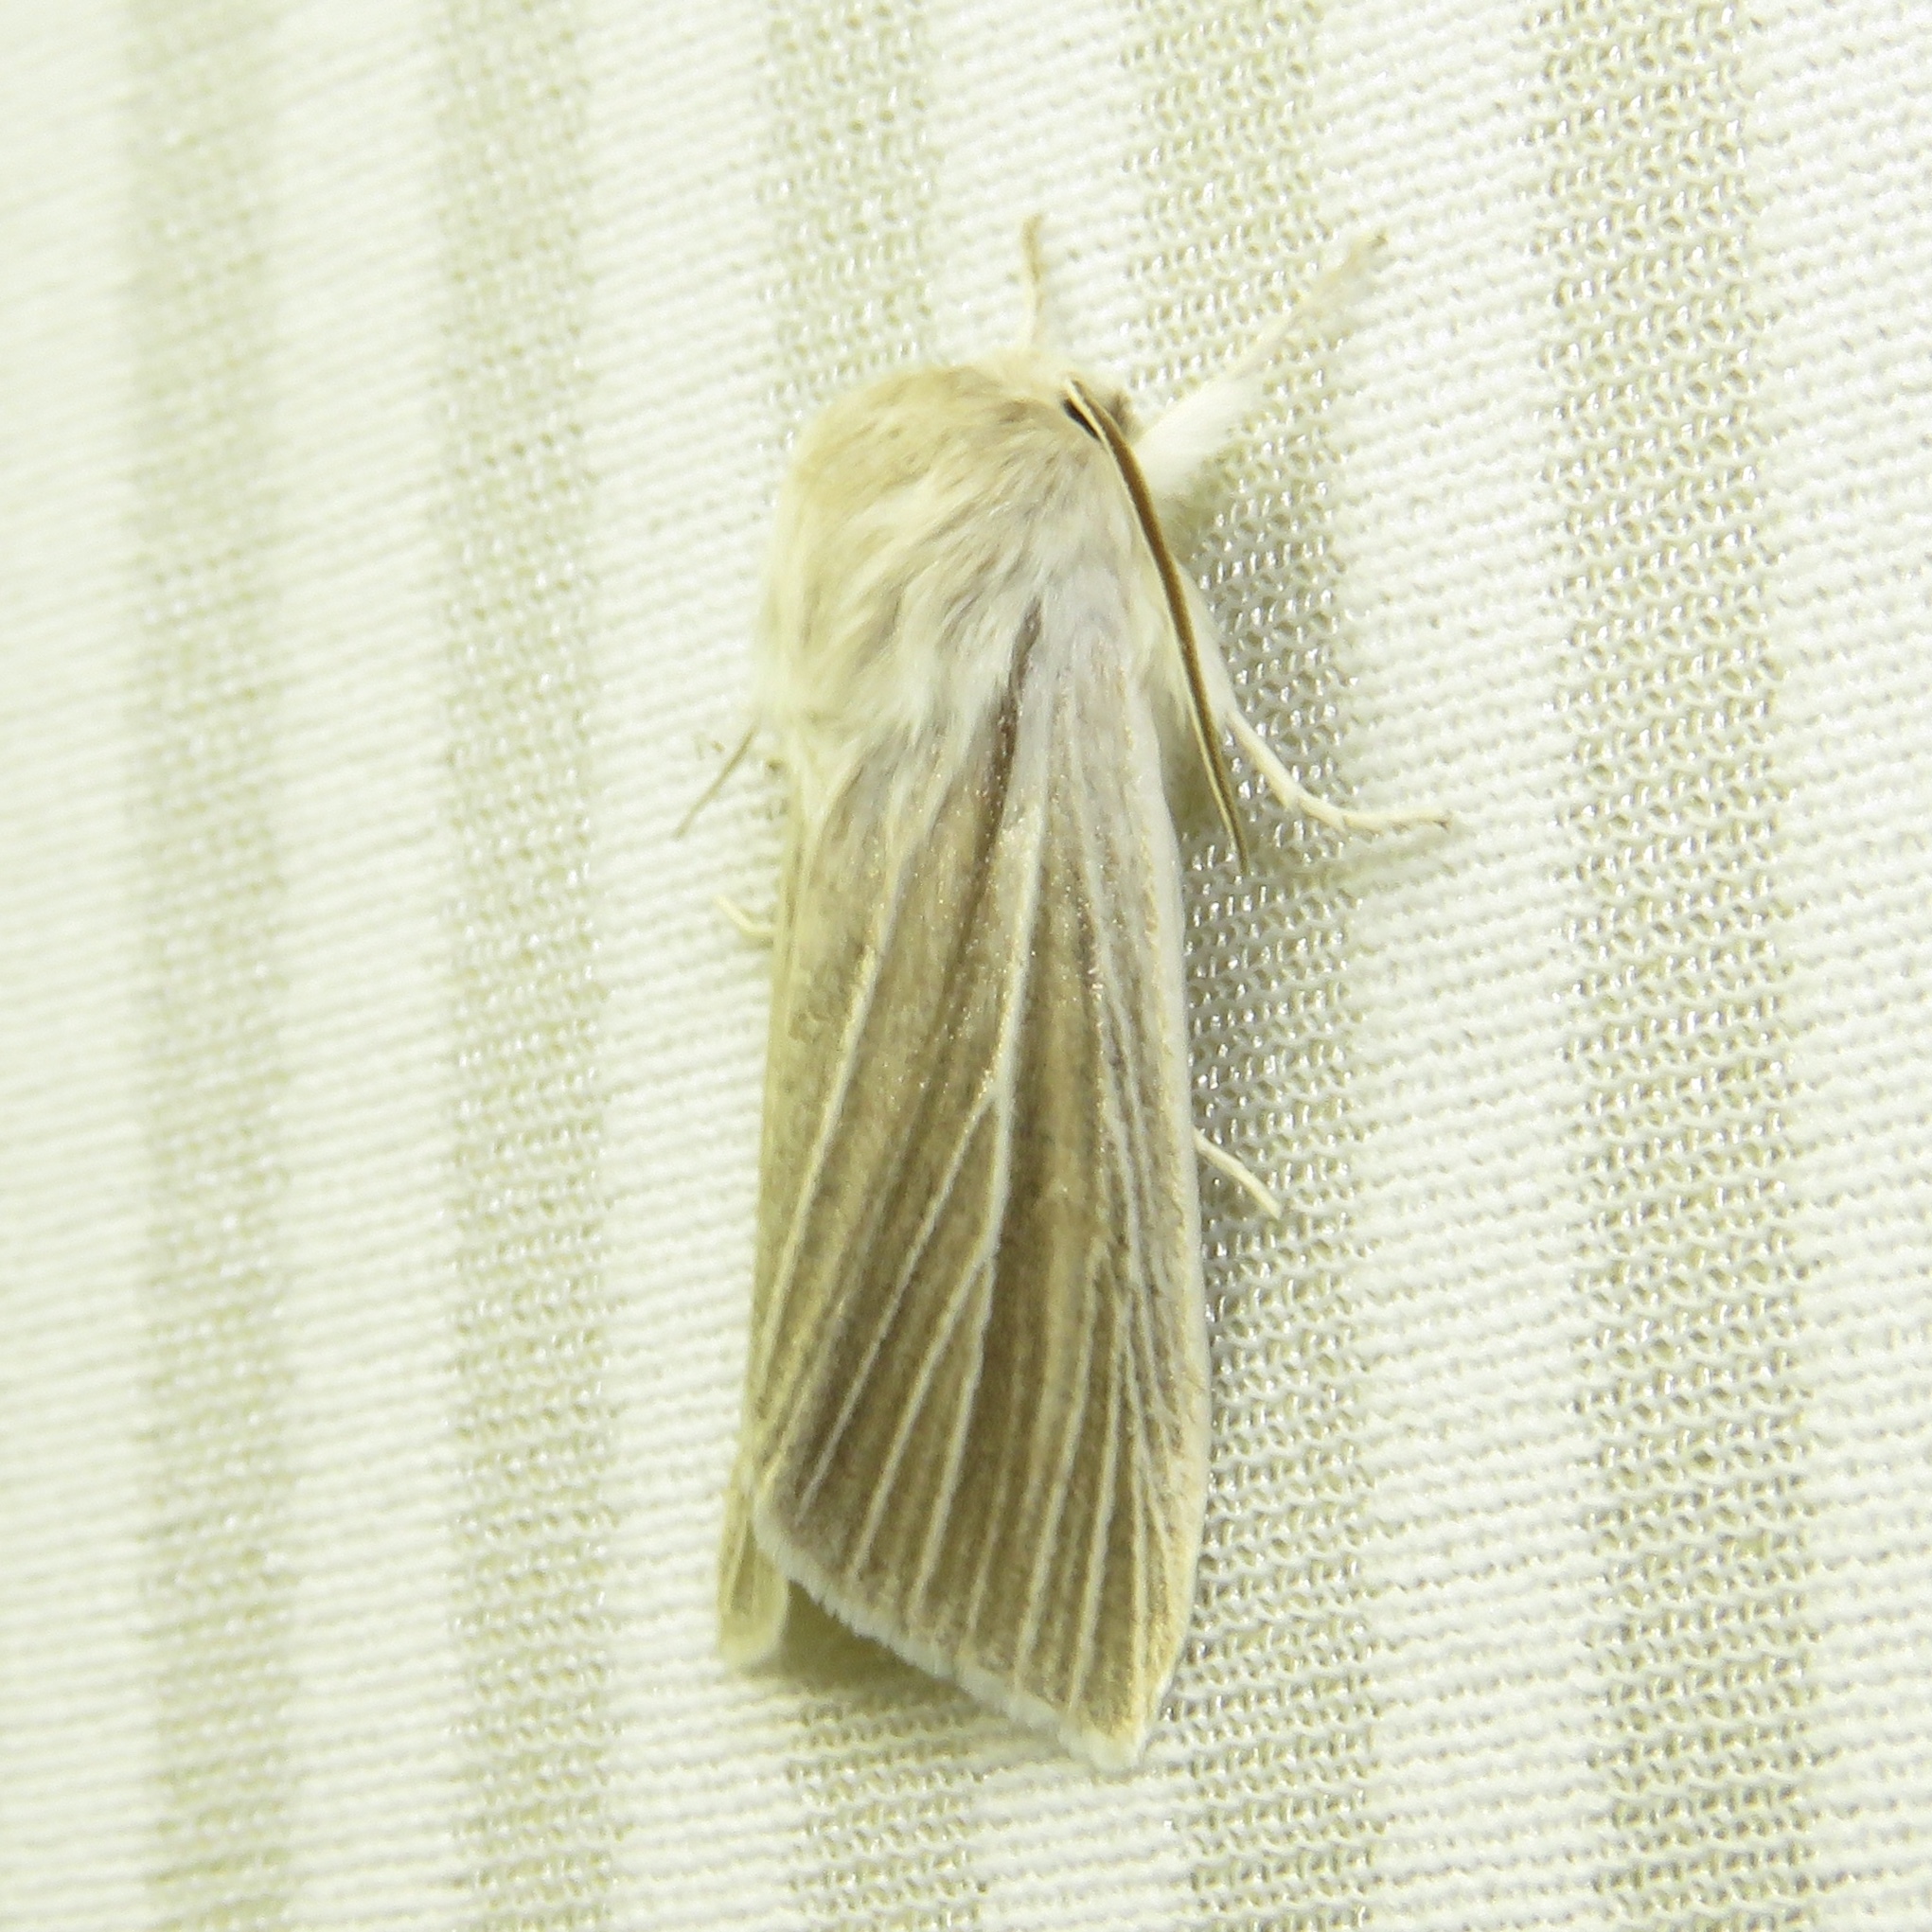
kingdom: Animalia
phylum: Arthropoda
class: Insecta
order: Lepidoptera
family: Noctuidae
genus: Acronicta
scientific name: Acronicta insularis
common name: Henry's marsh moth
